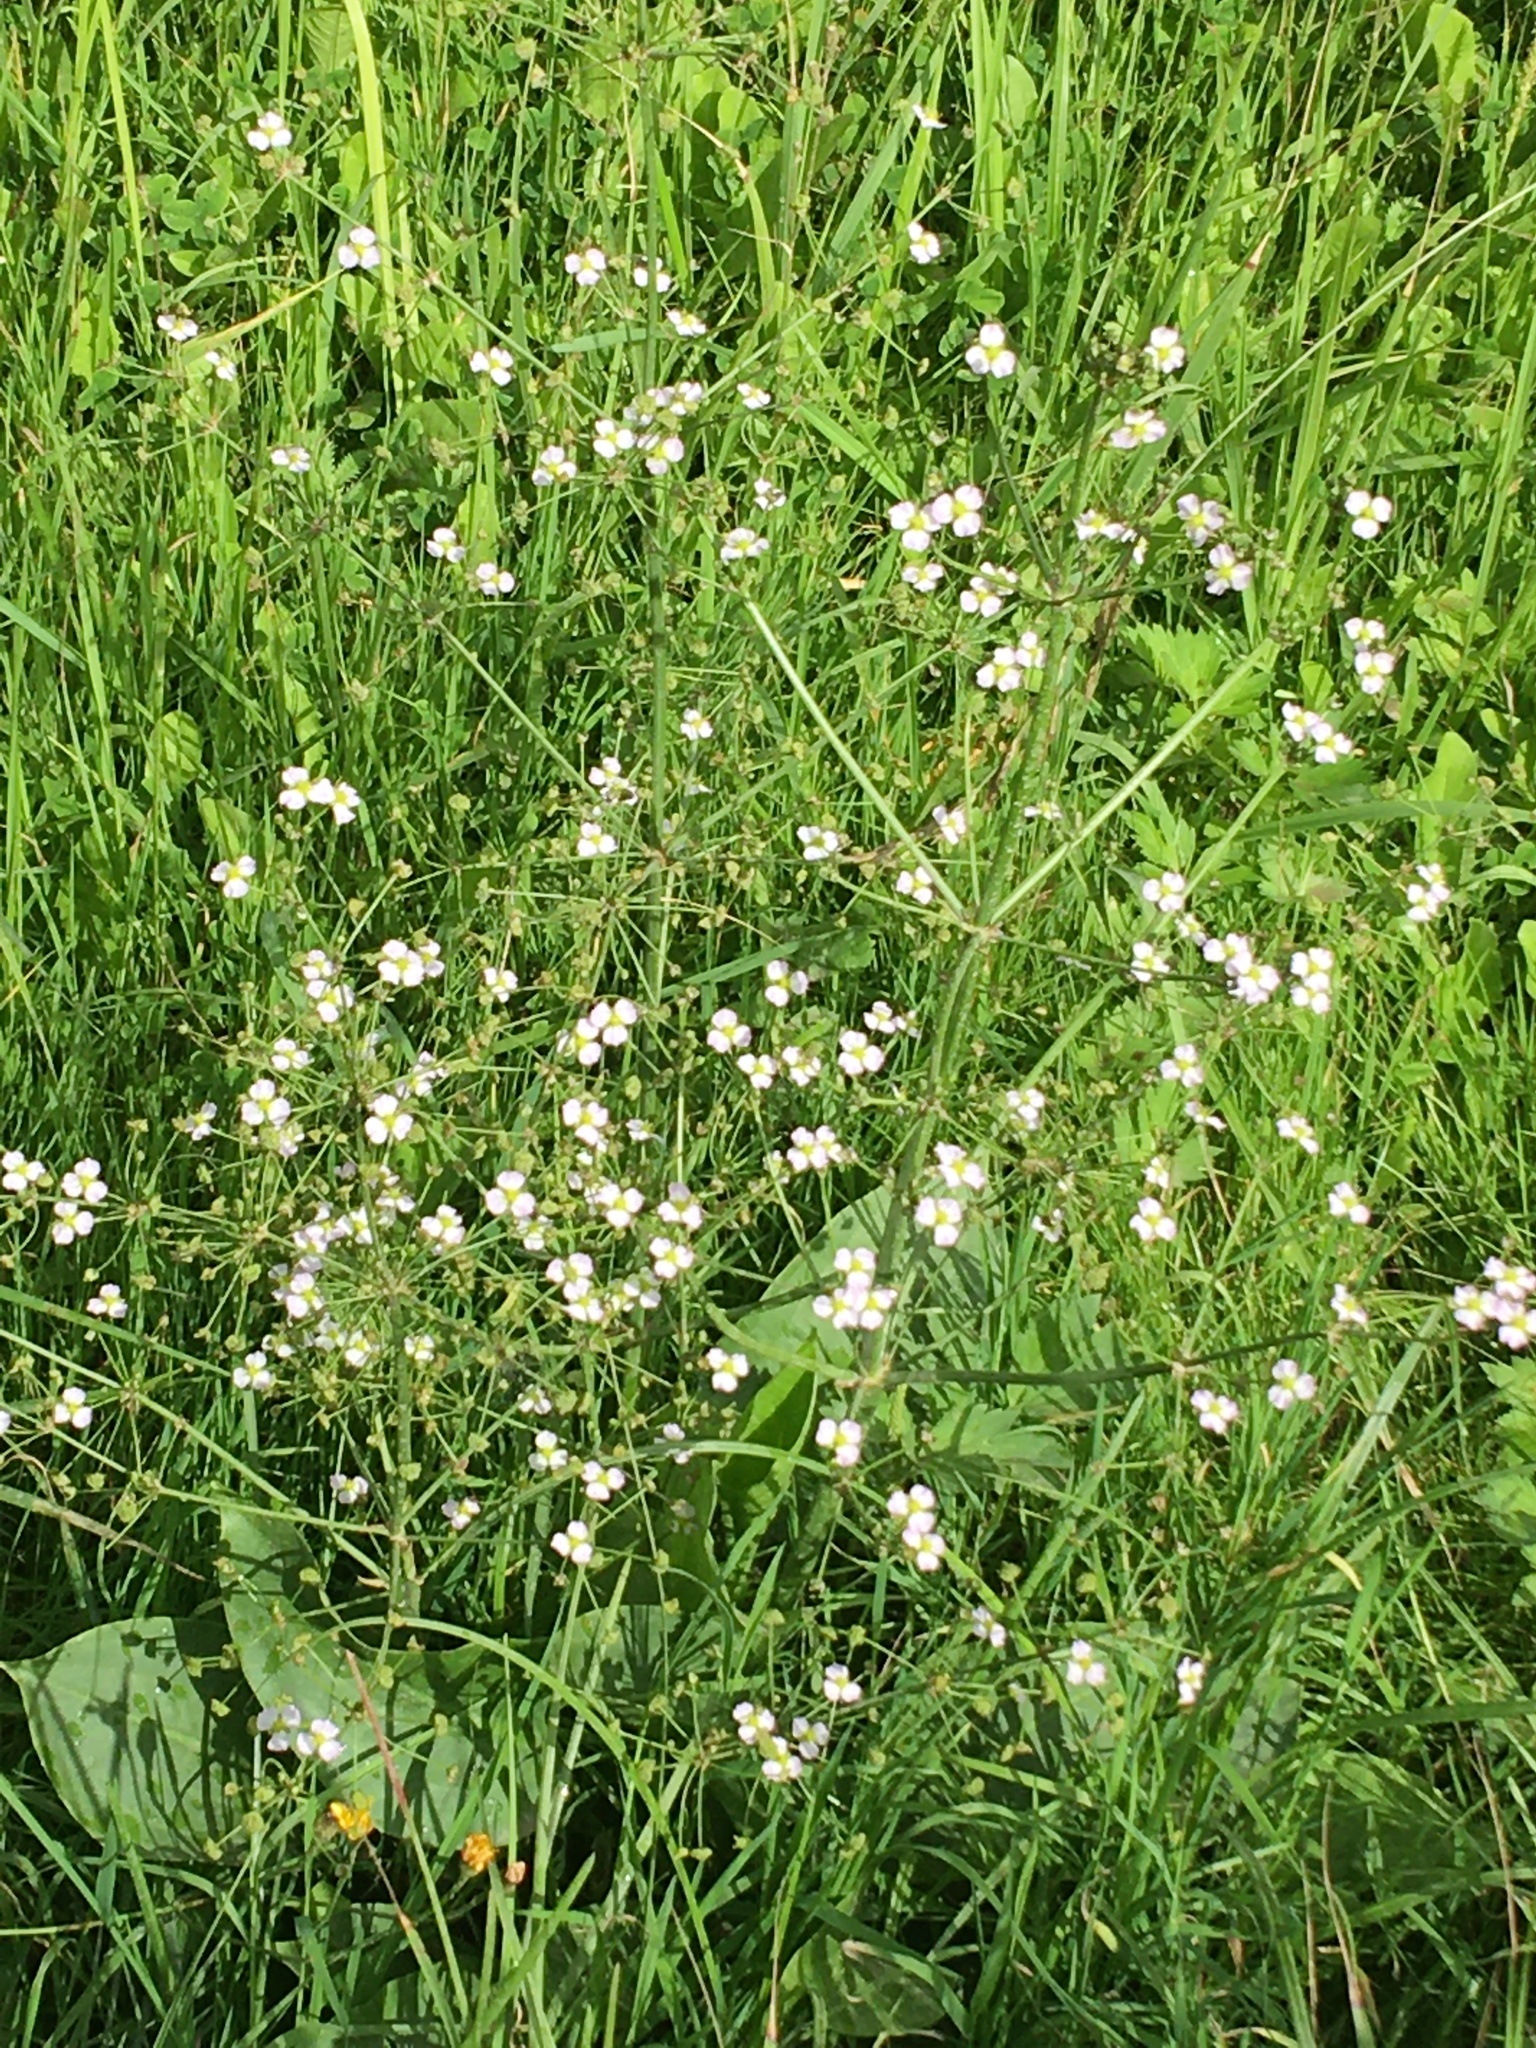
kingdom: Plantae
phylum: Tracheophyta
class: Liliopsida
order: Alismatales
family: Alismataceae
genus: Alisma
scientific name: Alisma plantago-aquatica
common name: Water-plantain
